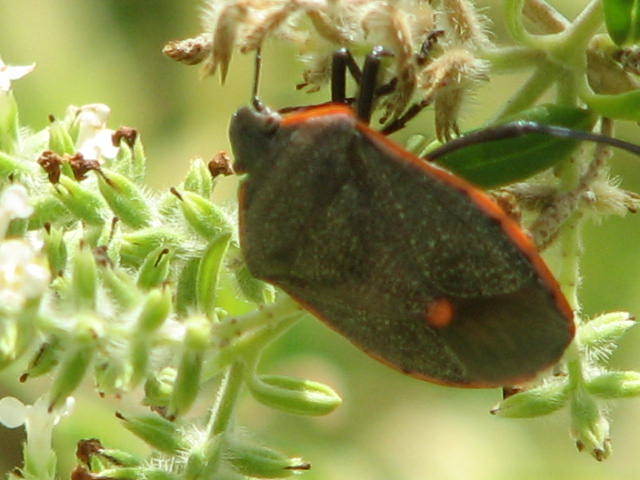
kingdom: Animalia
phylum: Arthropoda
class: Insecta
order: Hemiptera
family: Pentatomidae
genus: Chlorochroa
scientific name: Chlorochroa ligata
